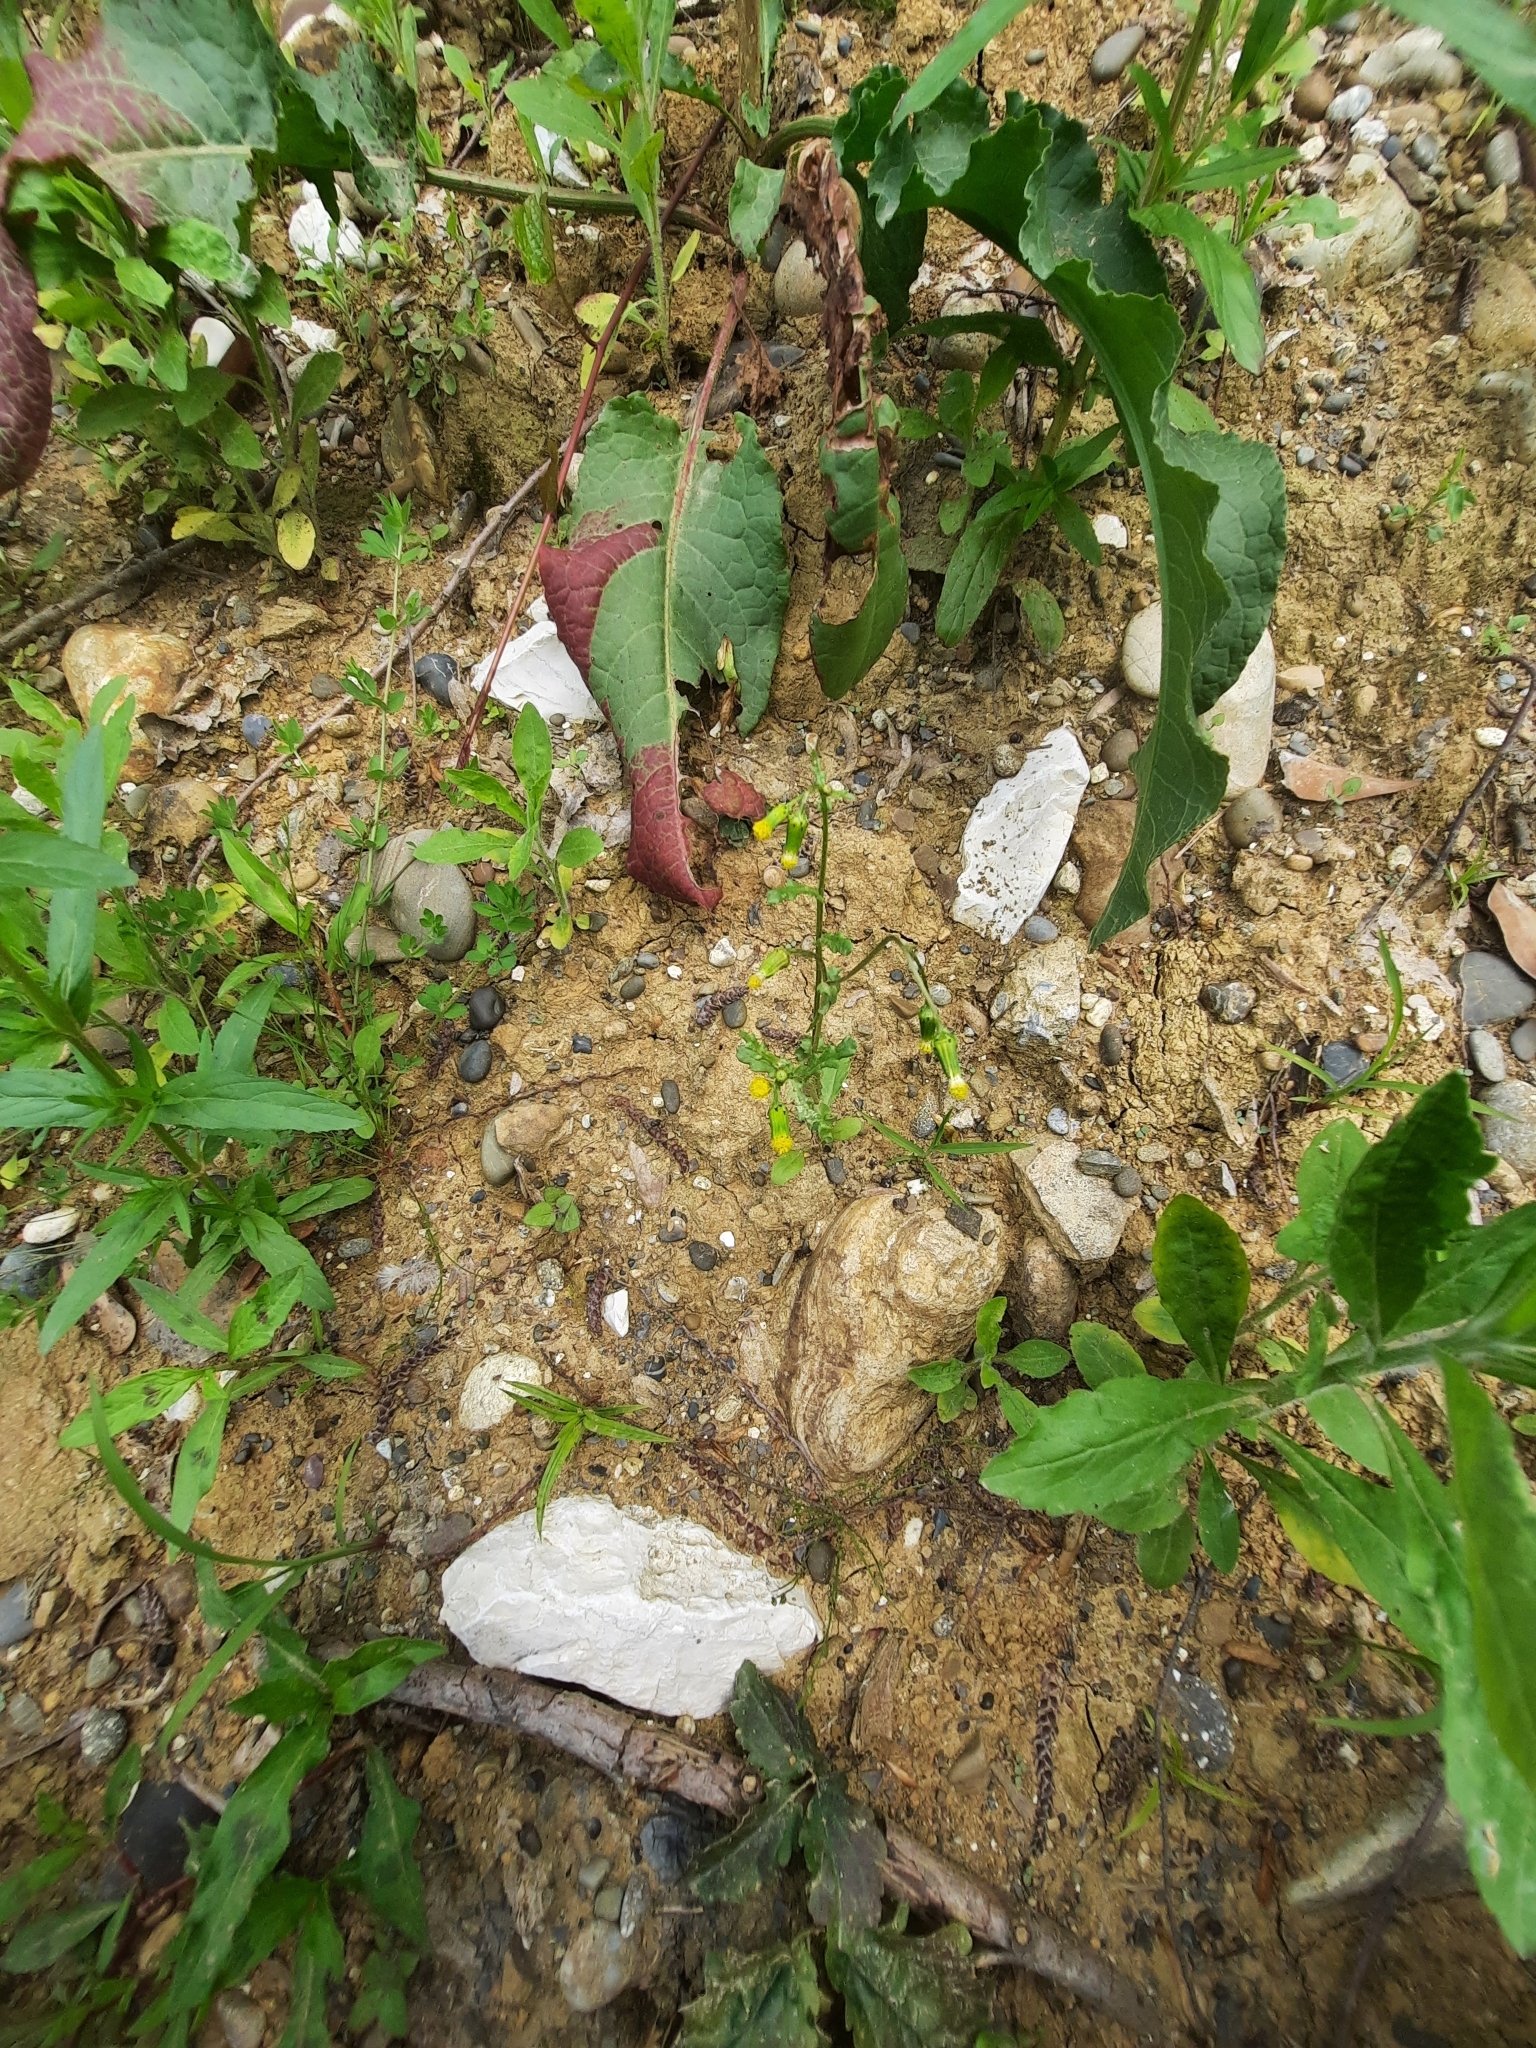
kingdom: Plantae
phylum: Tracheophyta
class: Magnoliopsida
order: Asterales
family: Asteraceae
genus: Senecio
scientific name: Senecio vulgaris
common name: Old-man-in-the-spring
